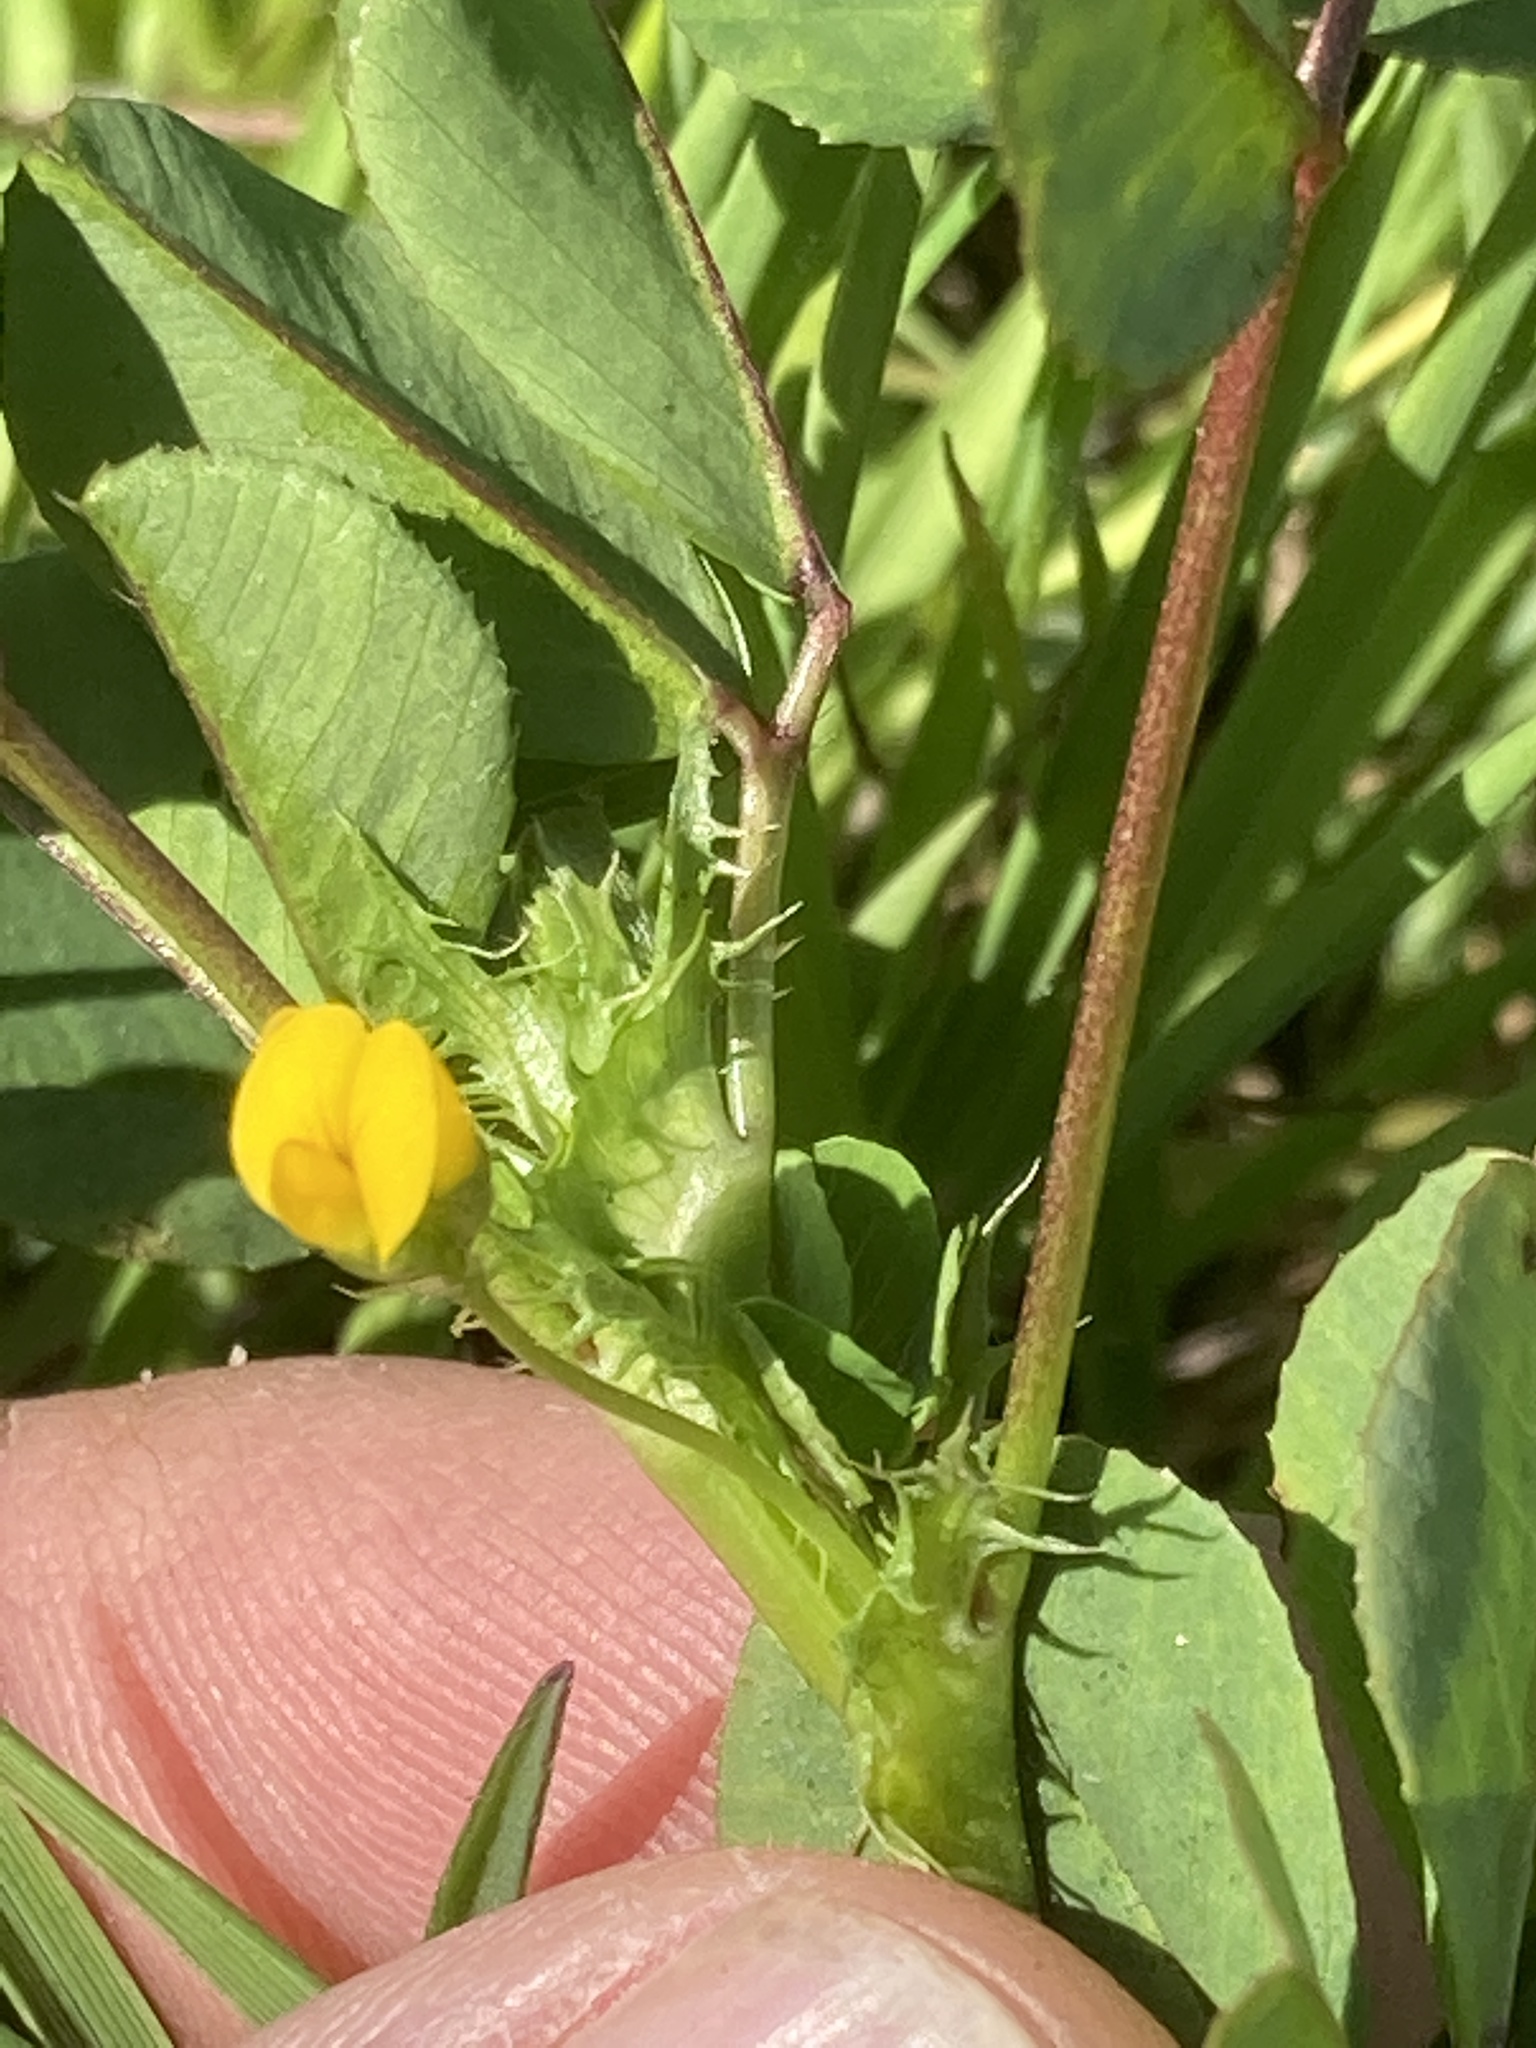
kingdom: Plantae
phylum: Tracheophyta
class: Magnoliopsida
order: Fabales
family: Fabaceae
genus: Medicago
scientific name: Medicago polymorpha
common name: Burclover
